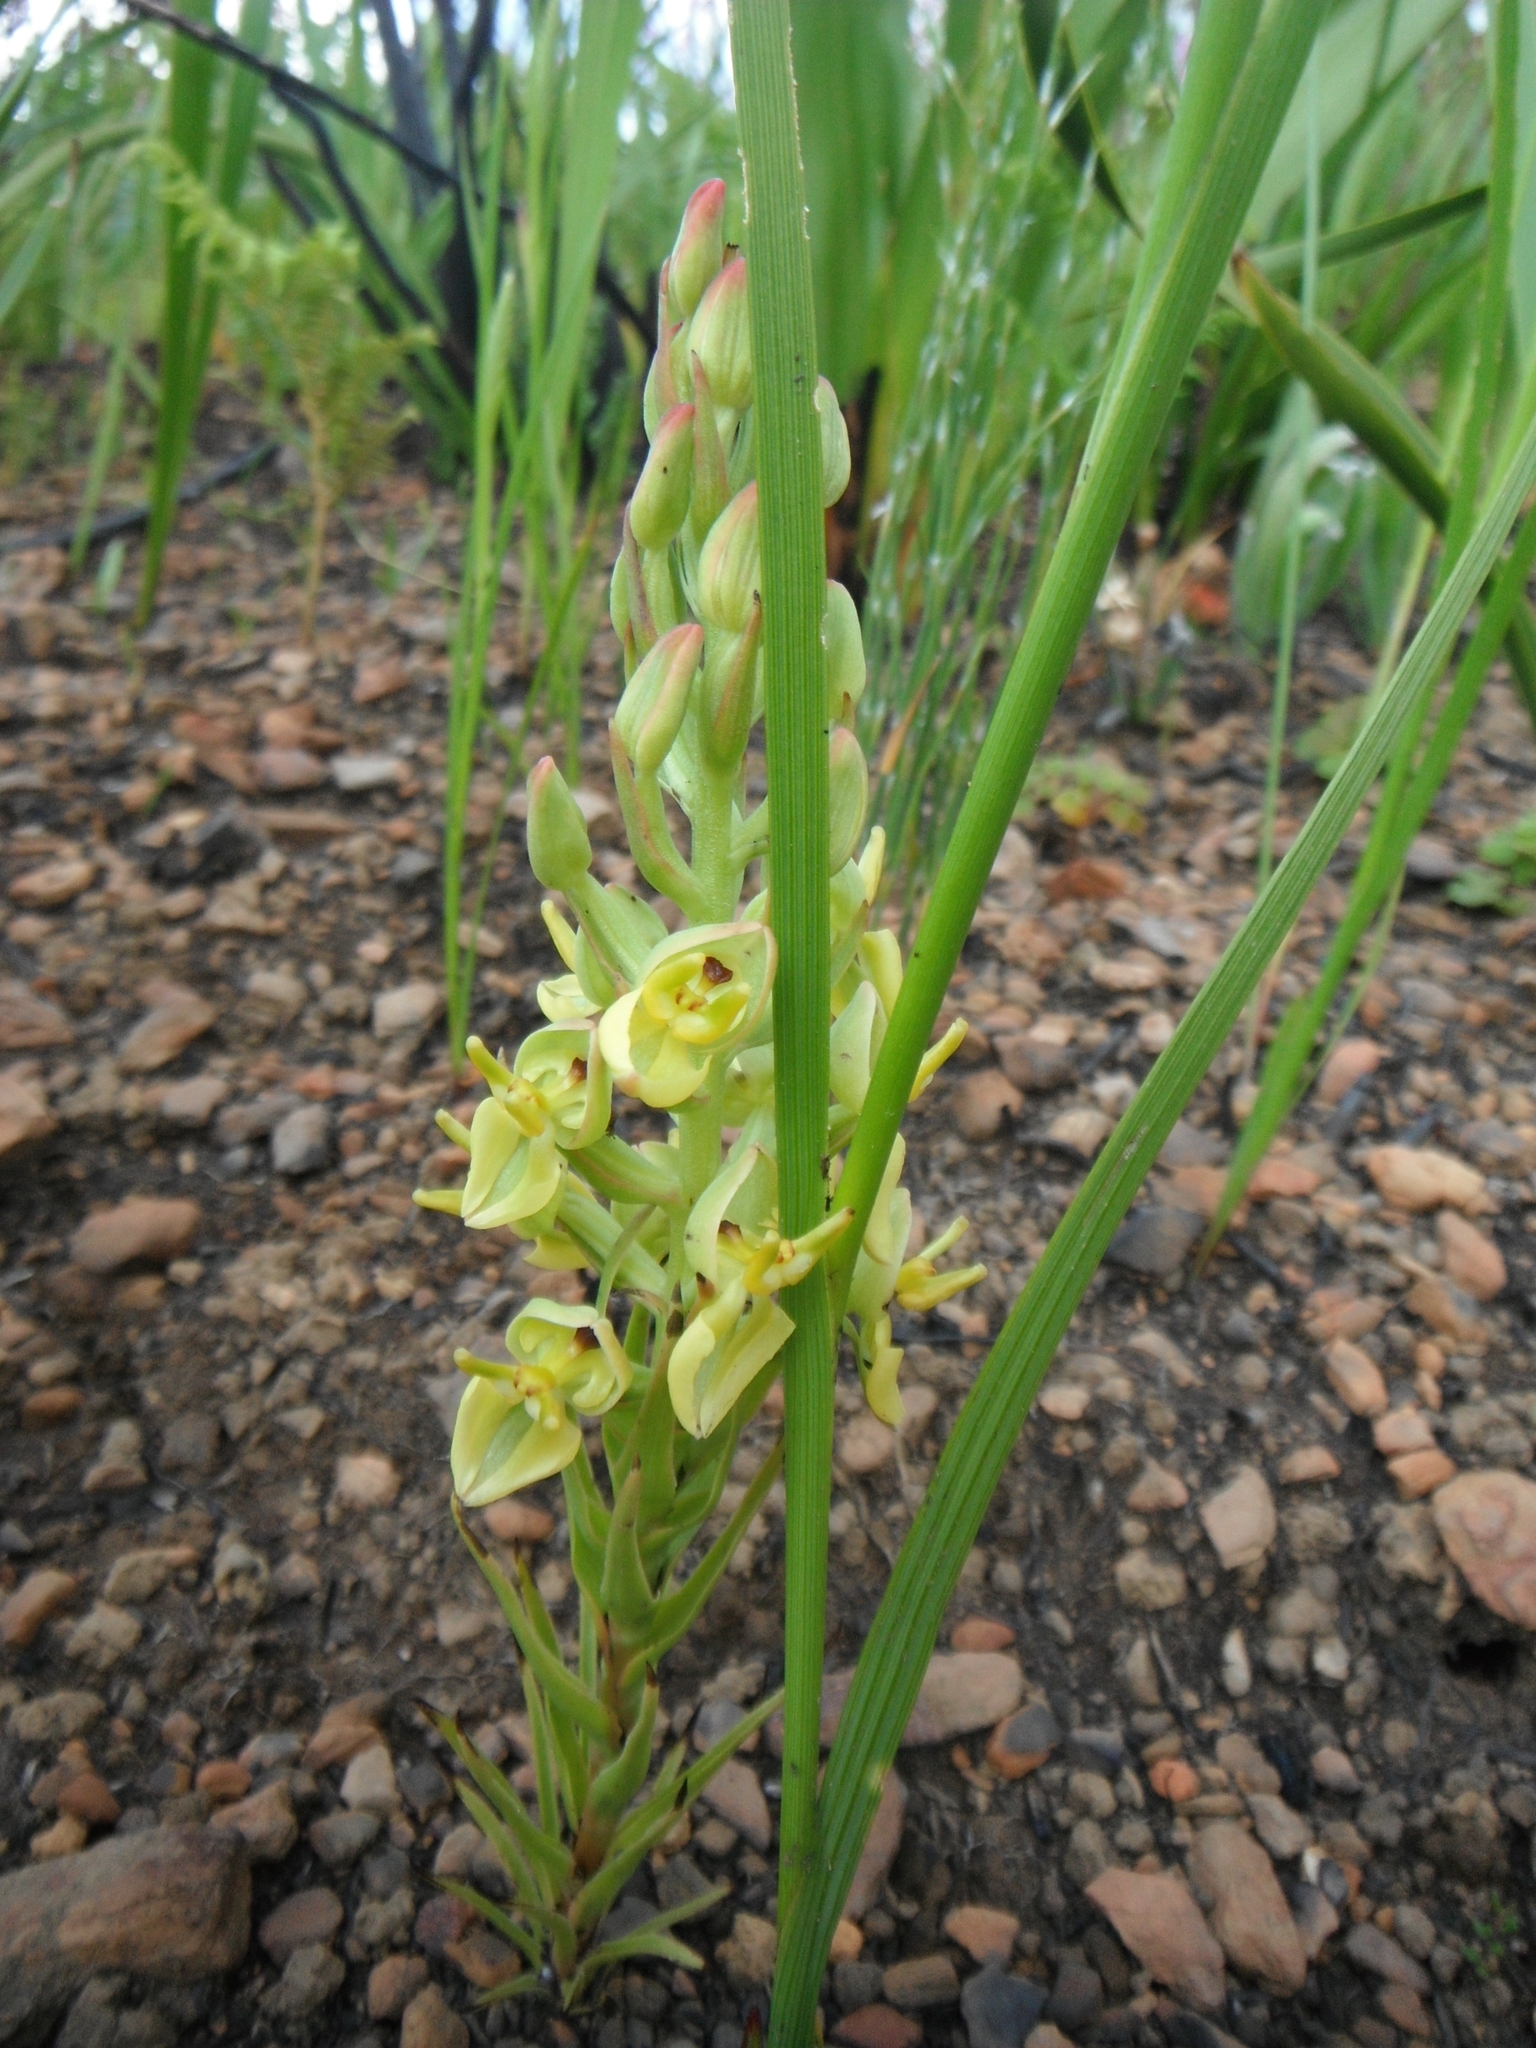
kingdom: Plantae
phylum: Tracheophyta
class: Liliopsida
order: Asparagales
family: Orchidaceae
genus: Ceratandra
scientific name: Ceratandra atrata
